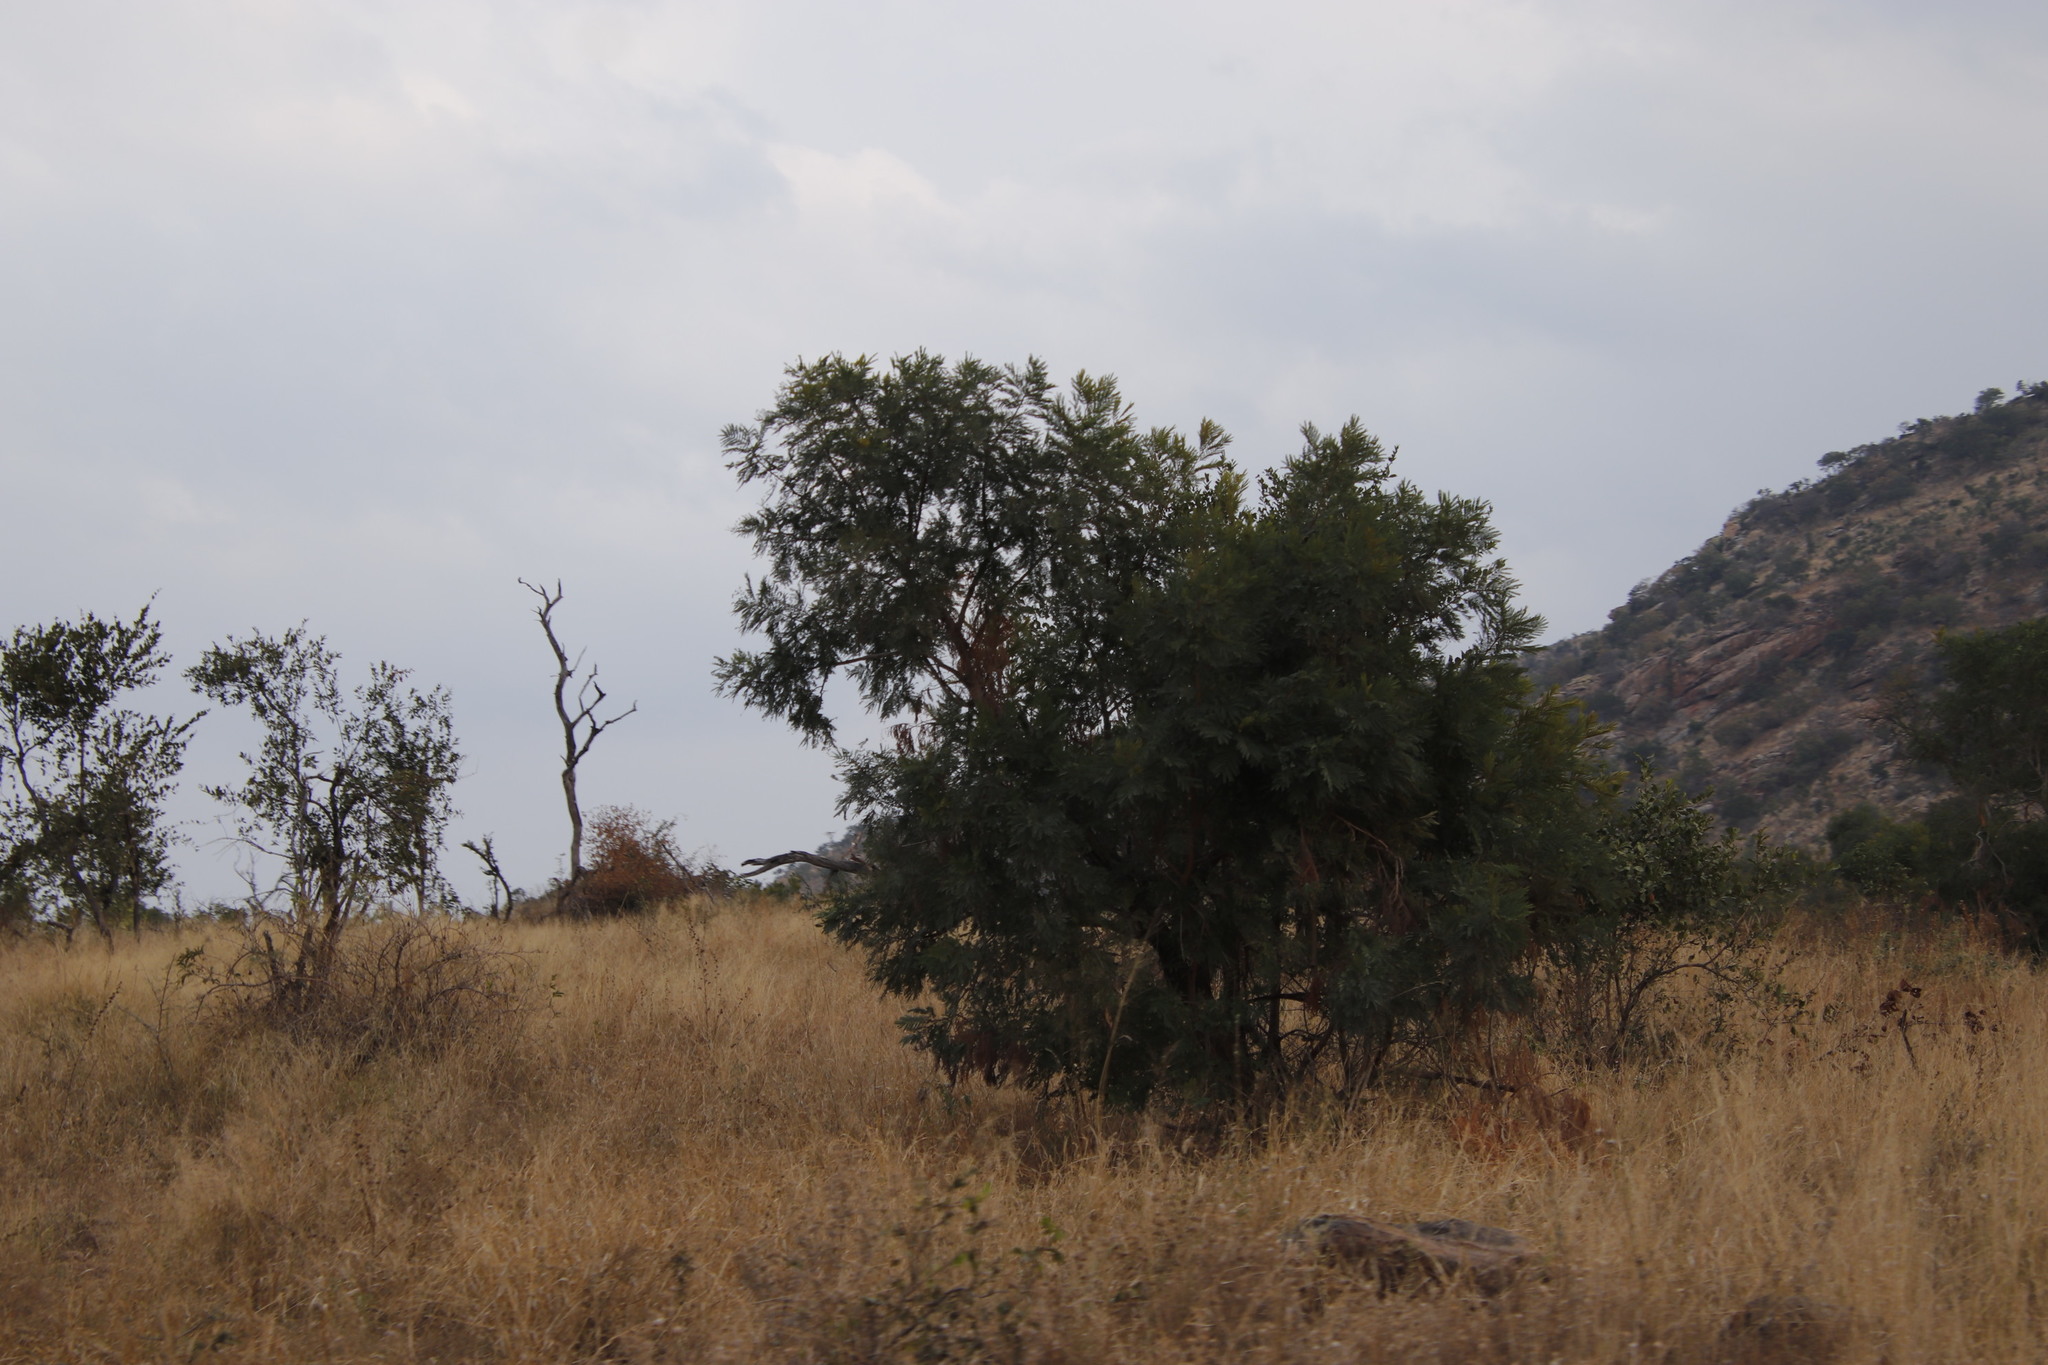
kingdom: Plantae
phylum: Tracheophyta
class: Magnoliopsida
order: Fabales
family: Fabaceae
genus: Peltophorum
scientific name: Peltophorum africanum
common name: African black wattle
